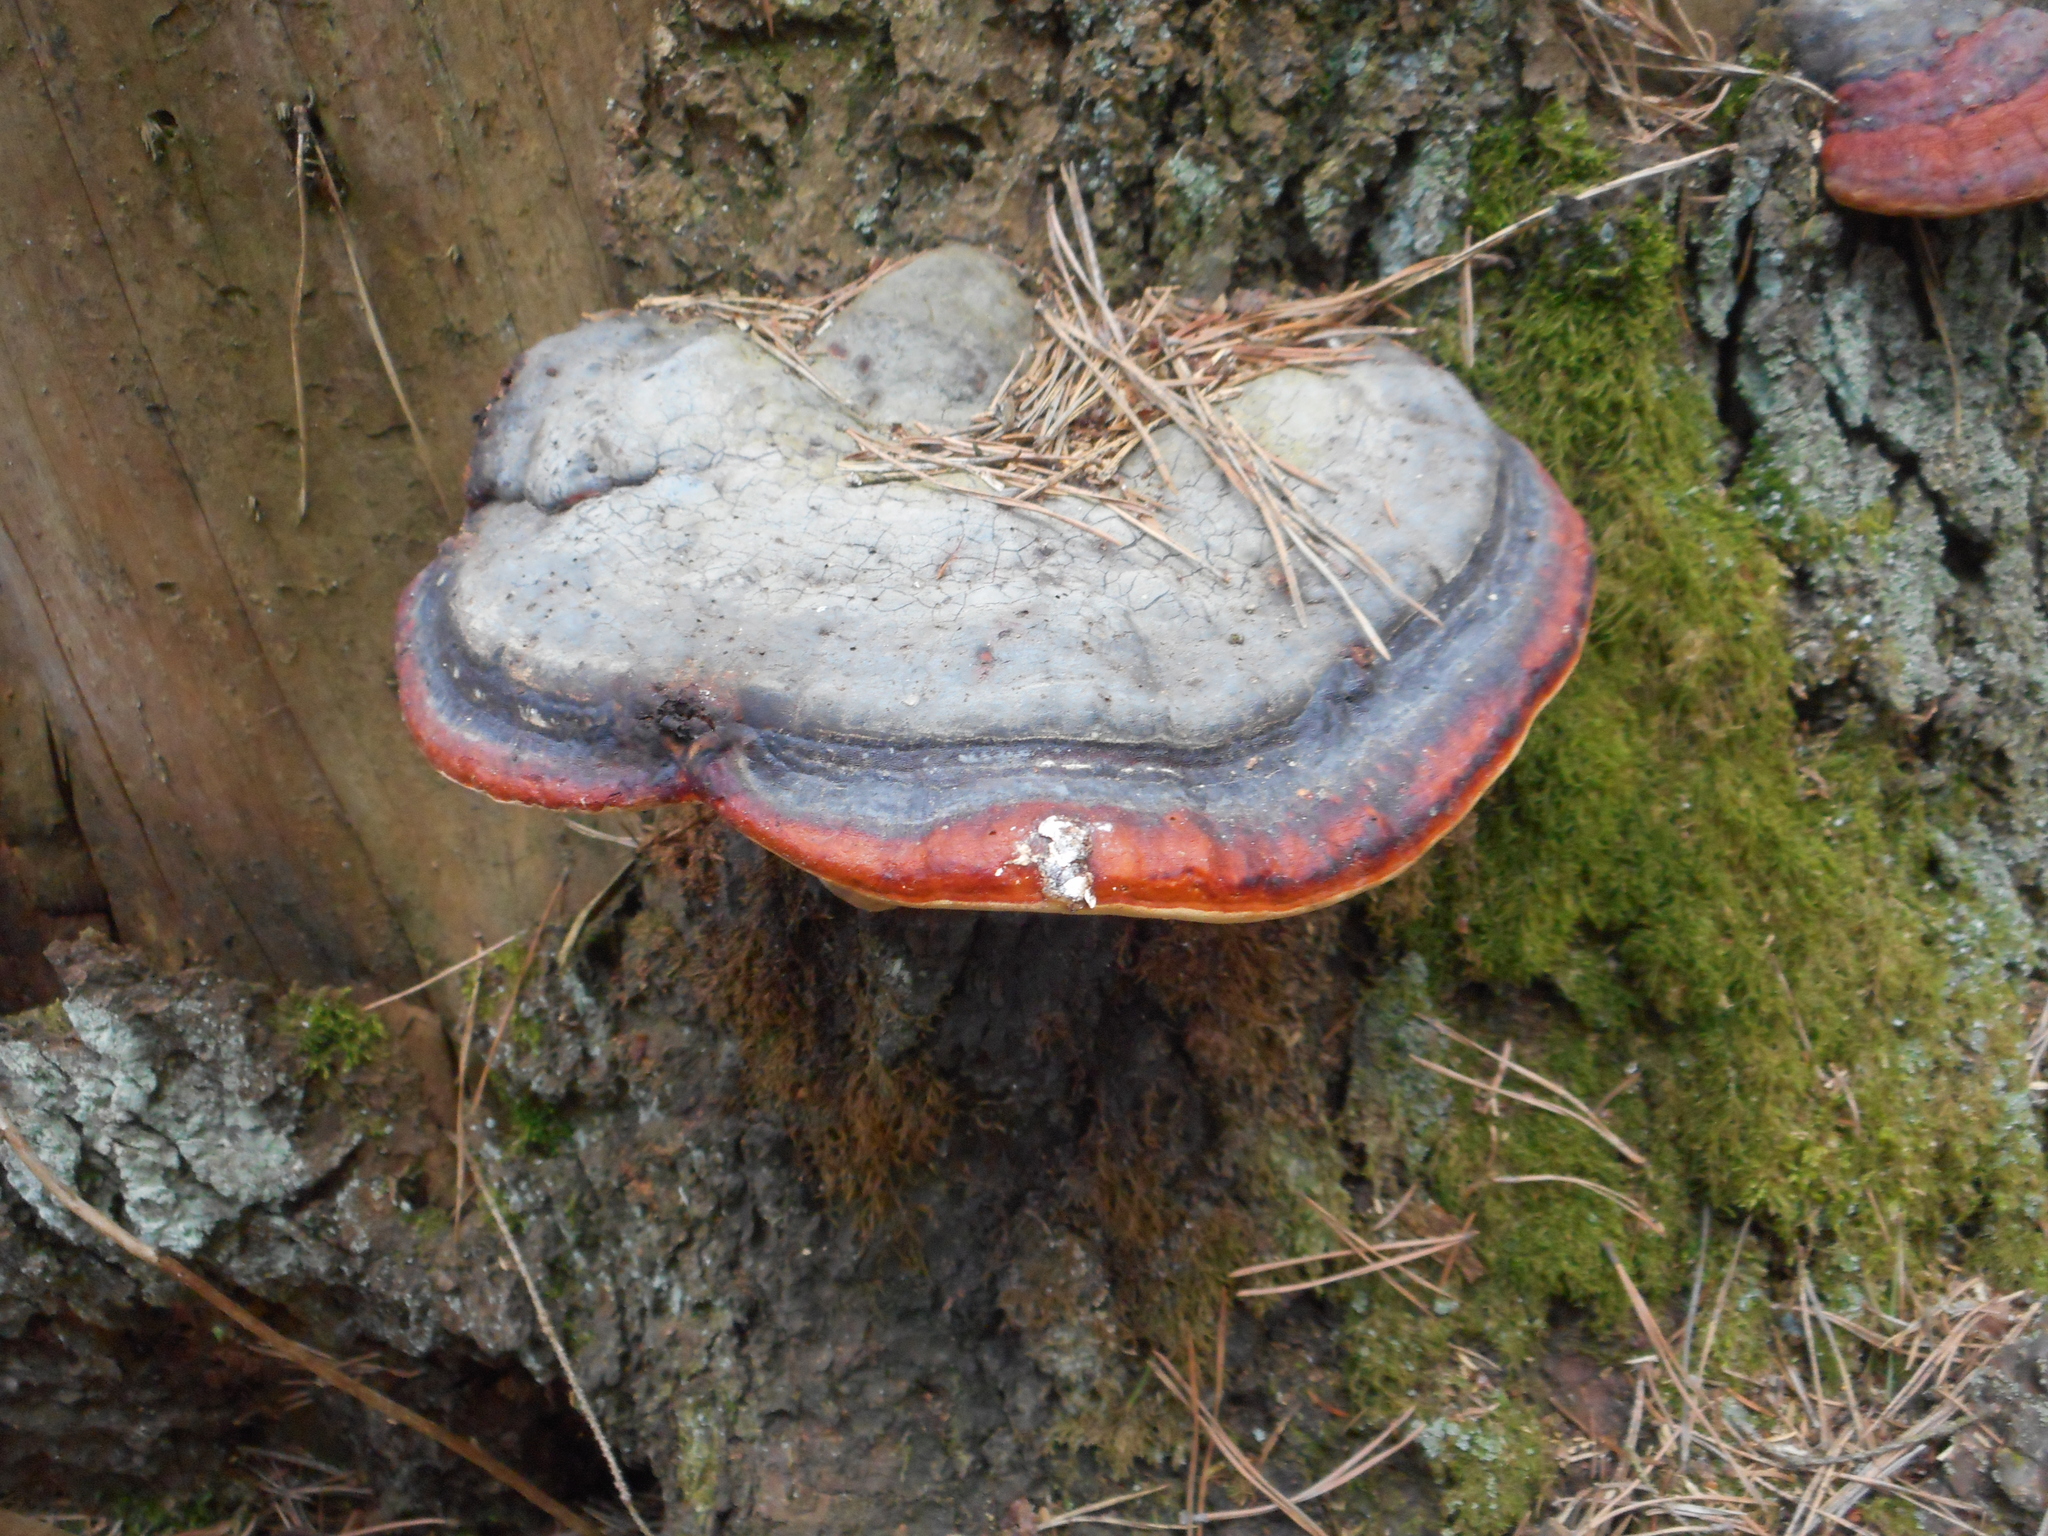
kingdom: Fungi
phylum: Basidiomycota
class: Agaricomycetes
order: Polyporales
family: Fomitopsidaceae
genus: Fomitopsis
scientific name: Fomitopsis pinicola
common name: Red-belted bracket
